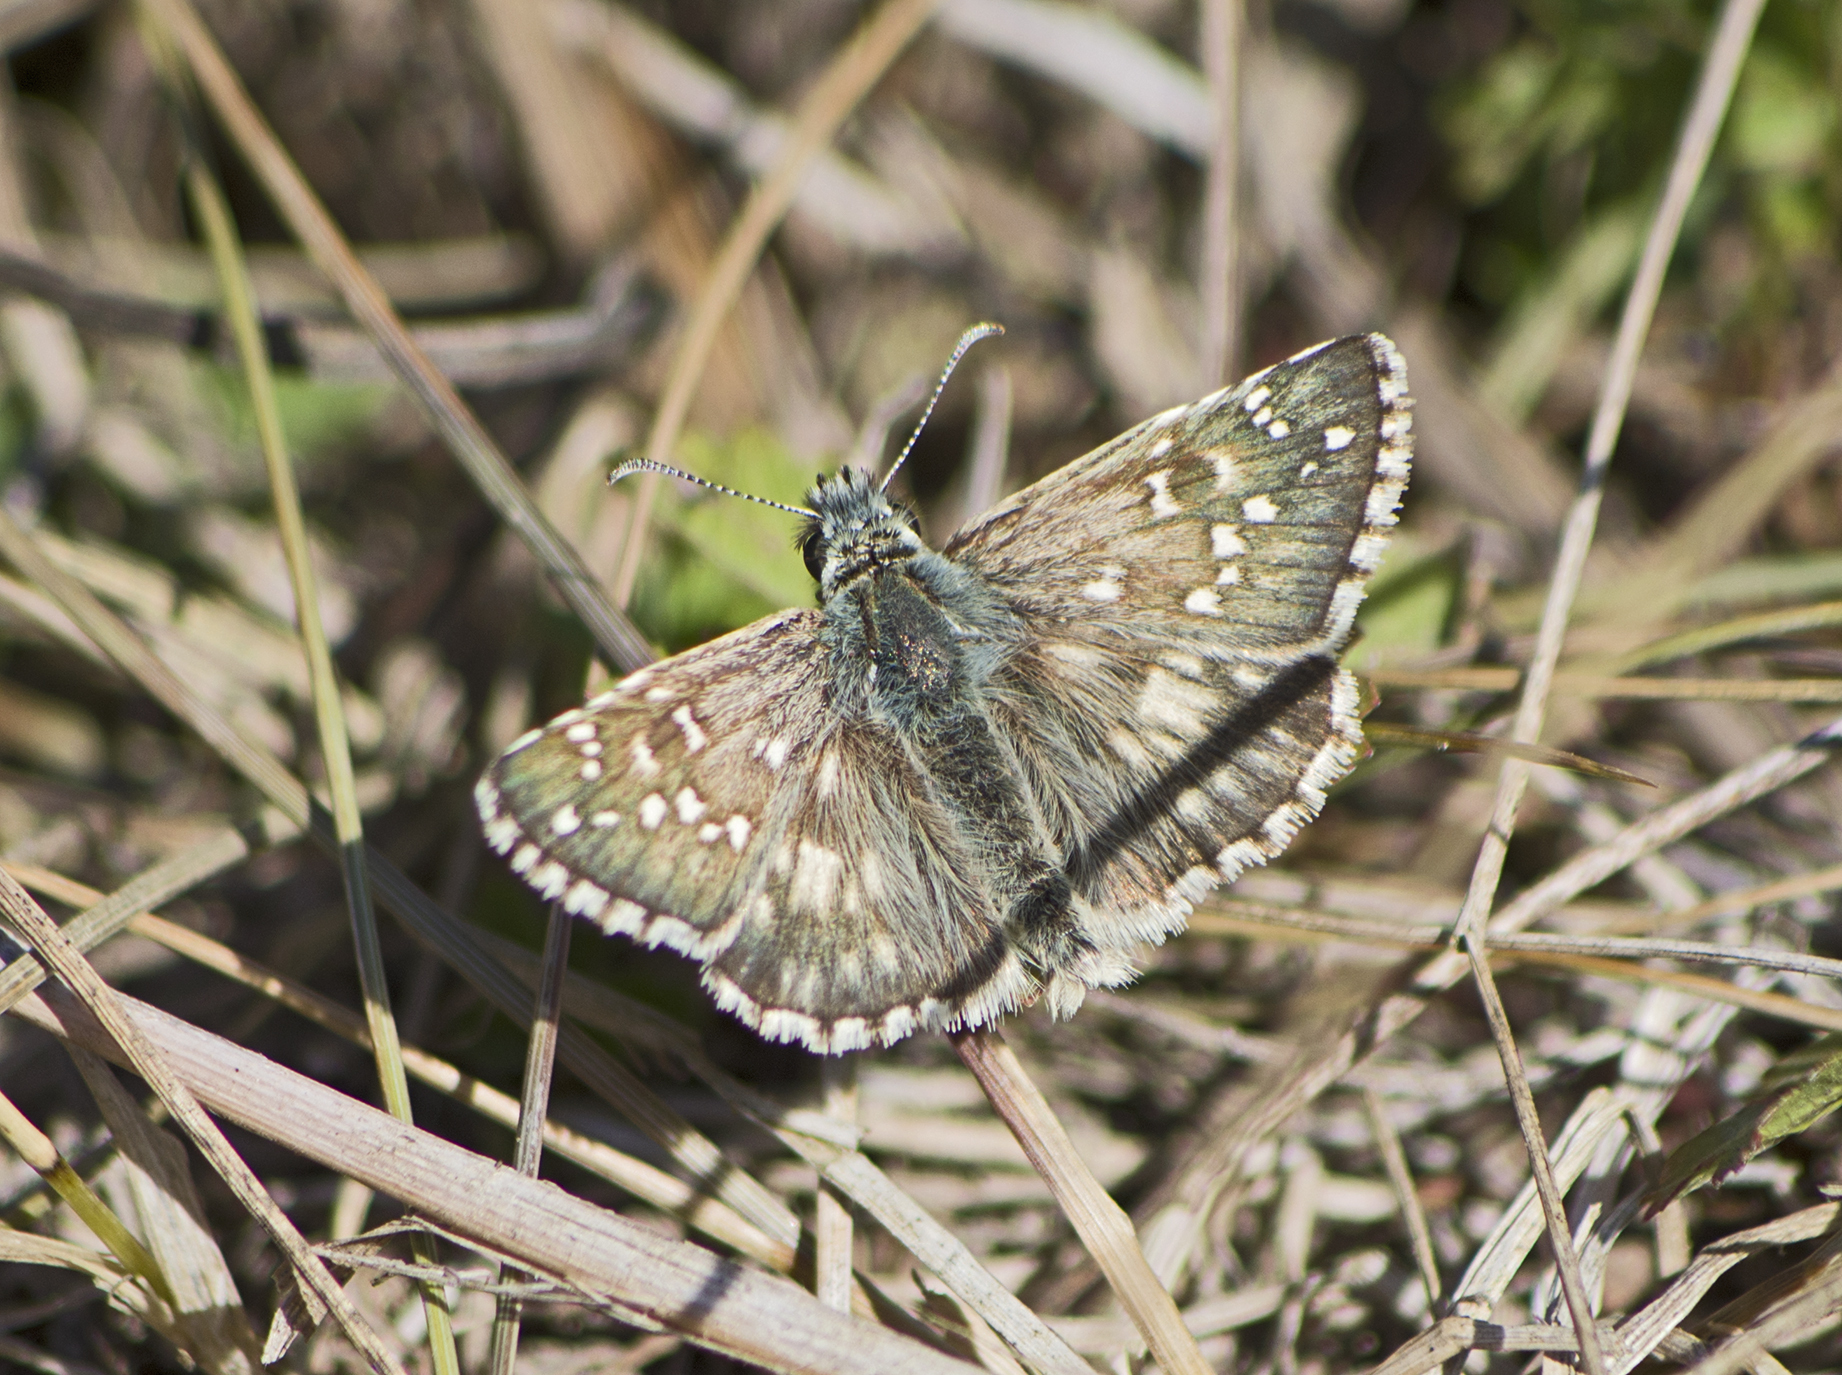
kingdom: Animalia
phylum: Arthropoda
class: Insecta
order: Lepidoptera
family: Hesperiidae
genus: Pyrgus
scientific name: Pyrgus armoricanus
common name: Oberthür's grizzled skipper
